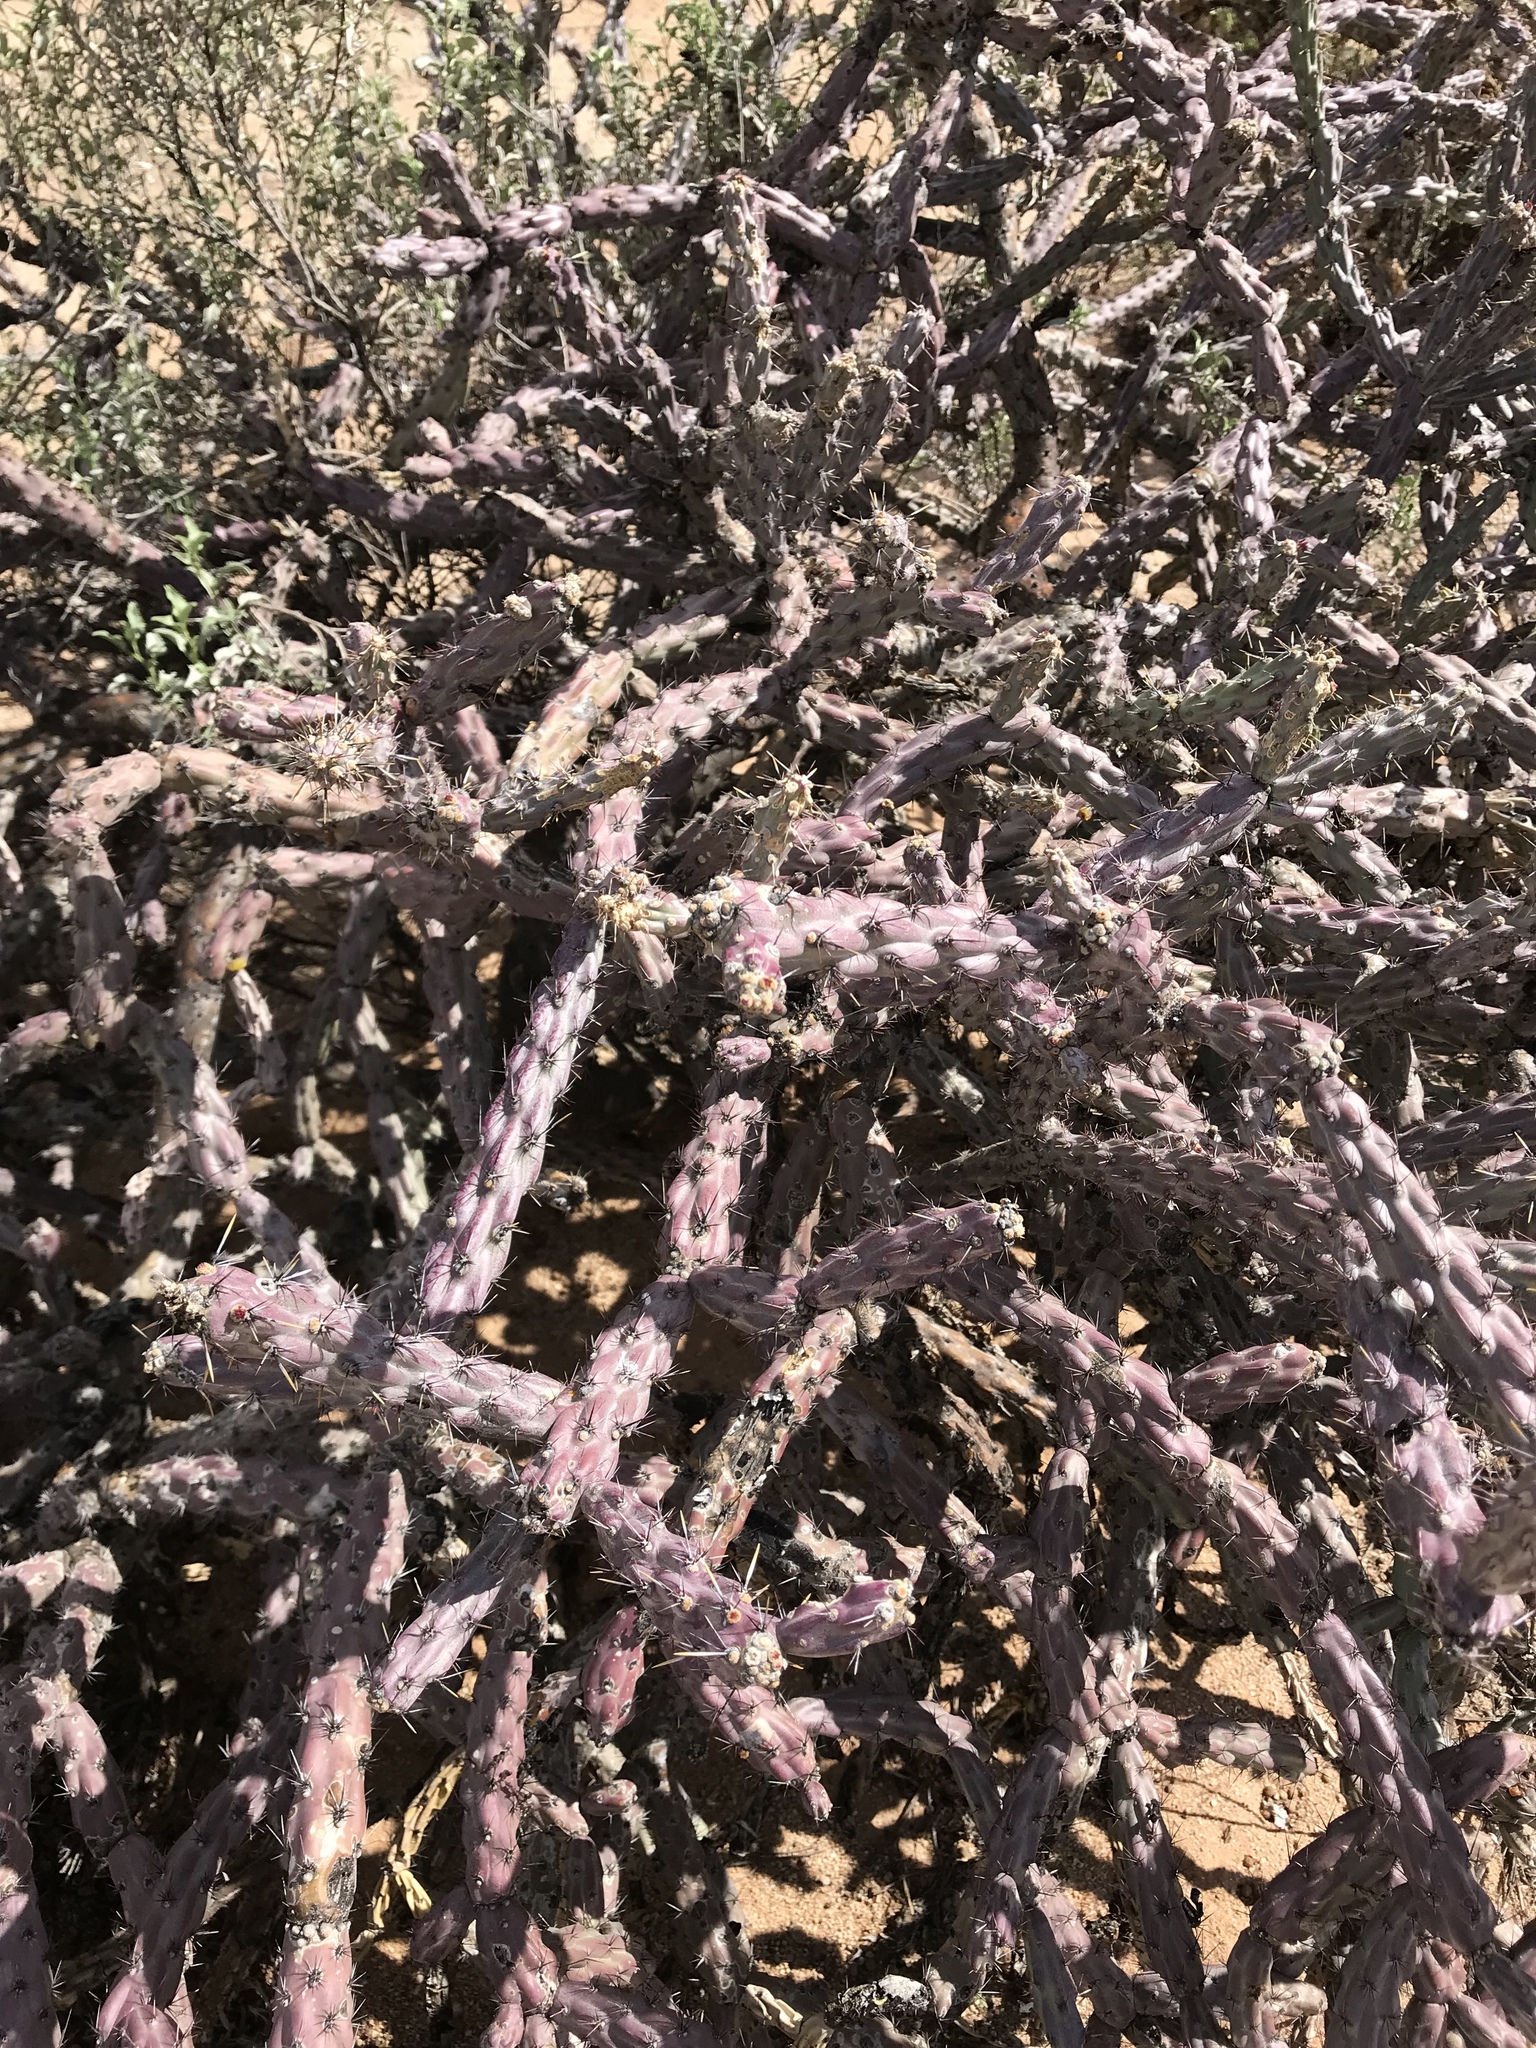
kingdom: Plantae
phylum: Tracheophyta
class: Magnoliopsida
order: Caryophyllales
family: Cactaceae
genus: Cylindropuntia
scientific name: Cylindropuntia thurberi
